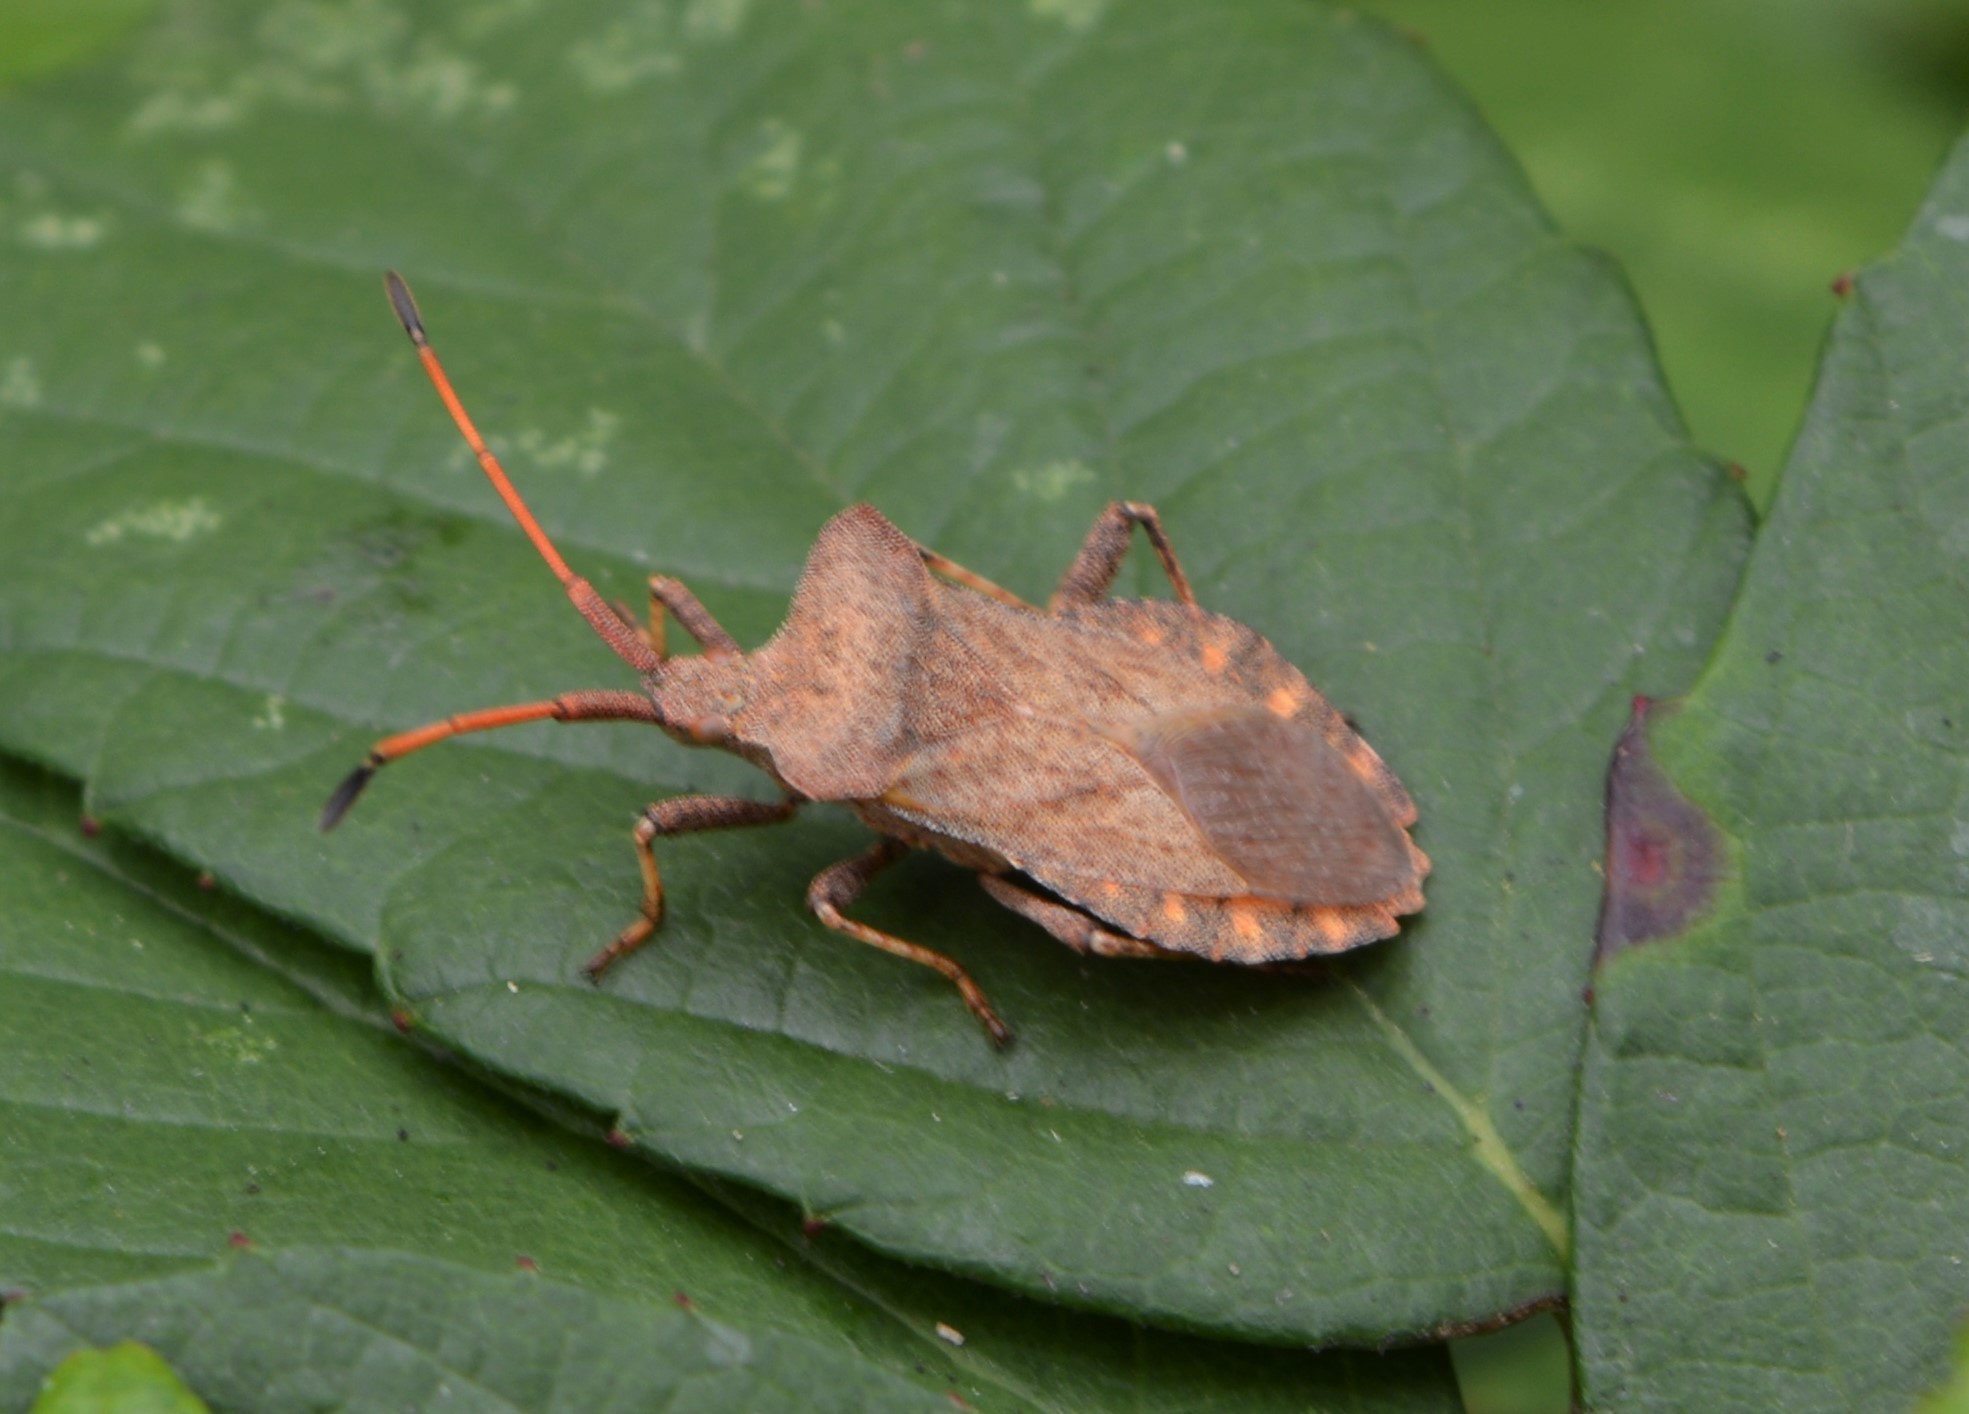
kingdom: Animalia
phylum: Arthropoda
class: Insecta
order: Hemiptera
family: Coreidae
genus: Coreus
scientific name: Coreus marginatus
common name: Dock bug
